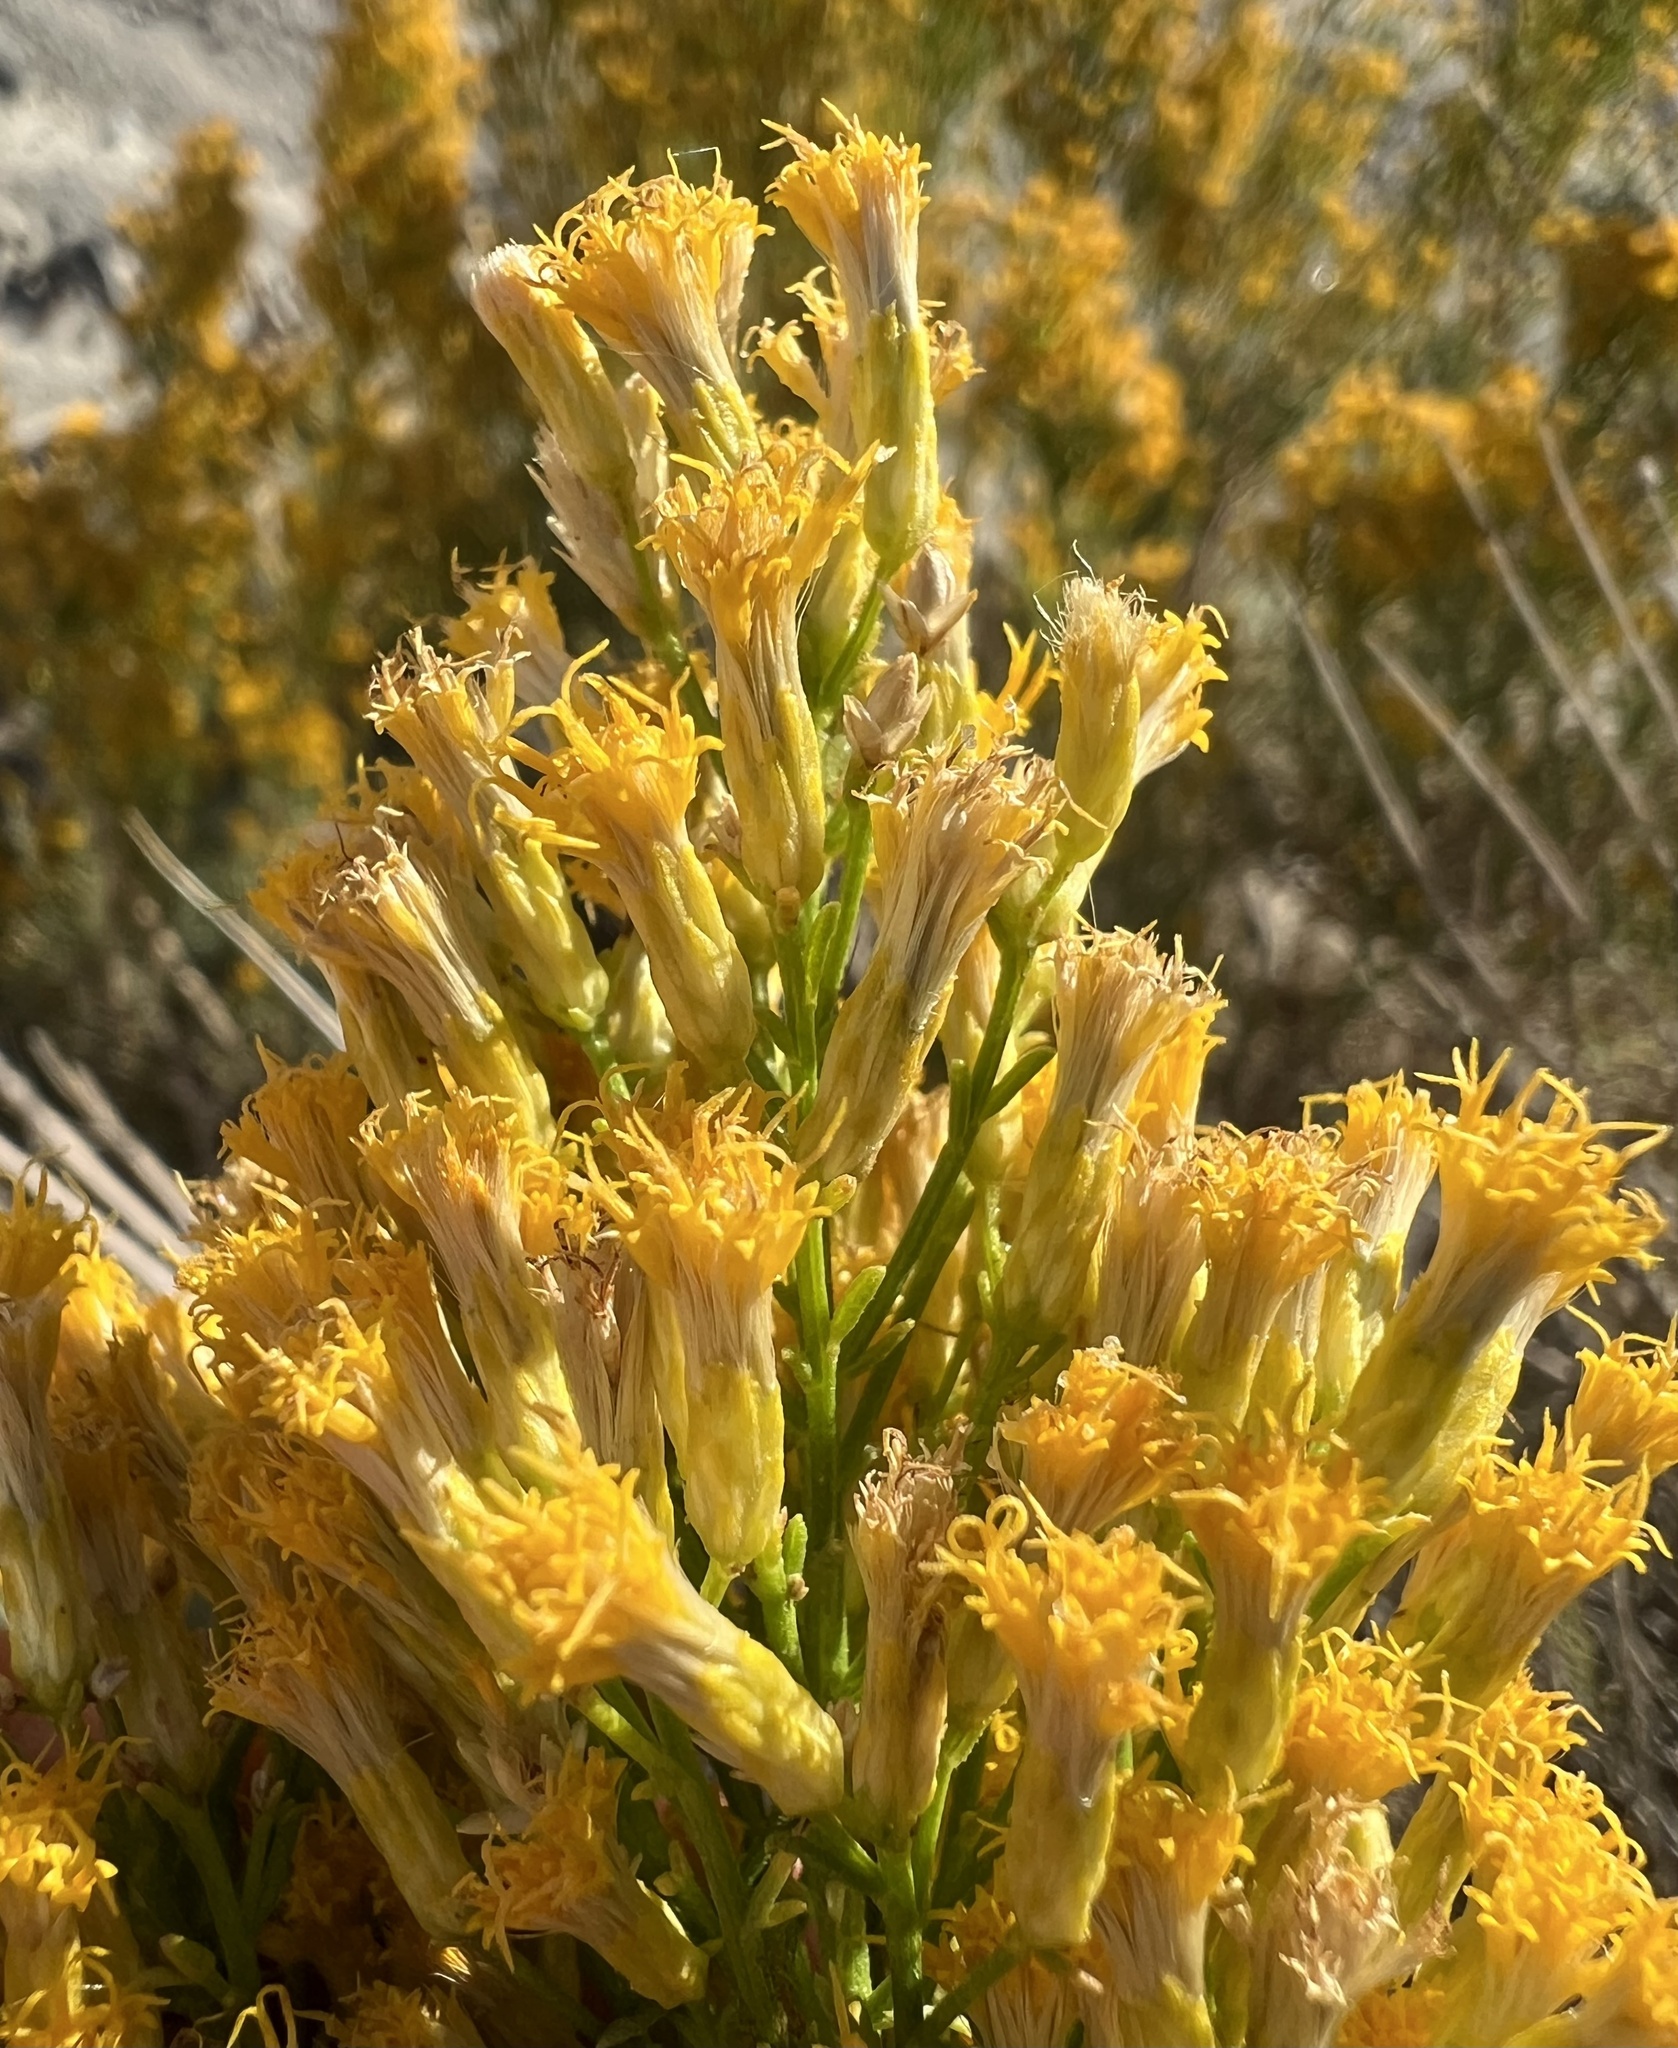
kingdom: Plantae
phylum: Tracheophyta
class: Magnoliopsida
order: Asterales
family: Asteraceae
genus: Ericameria
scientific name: Ericameria paniculata
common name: Punctate rabbitbrush
